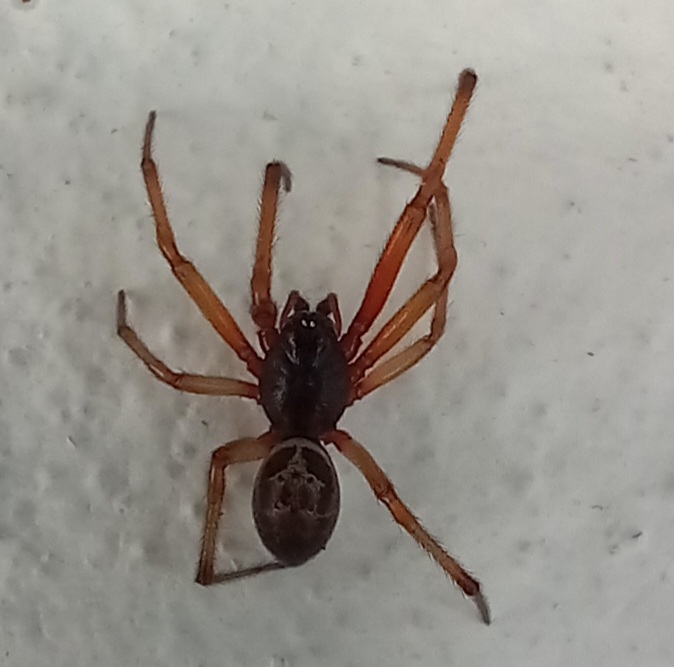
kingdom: Animalia
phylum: Arthropoda
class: Arachnida
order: Araneae
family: Theridiidae
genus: Steatoda
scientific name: Steatoda nobilis
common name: Cobweb weaver
